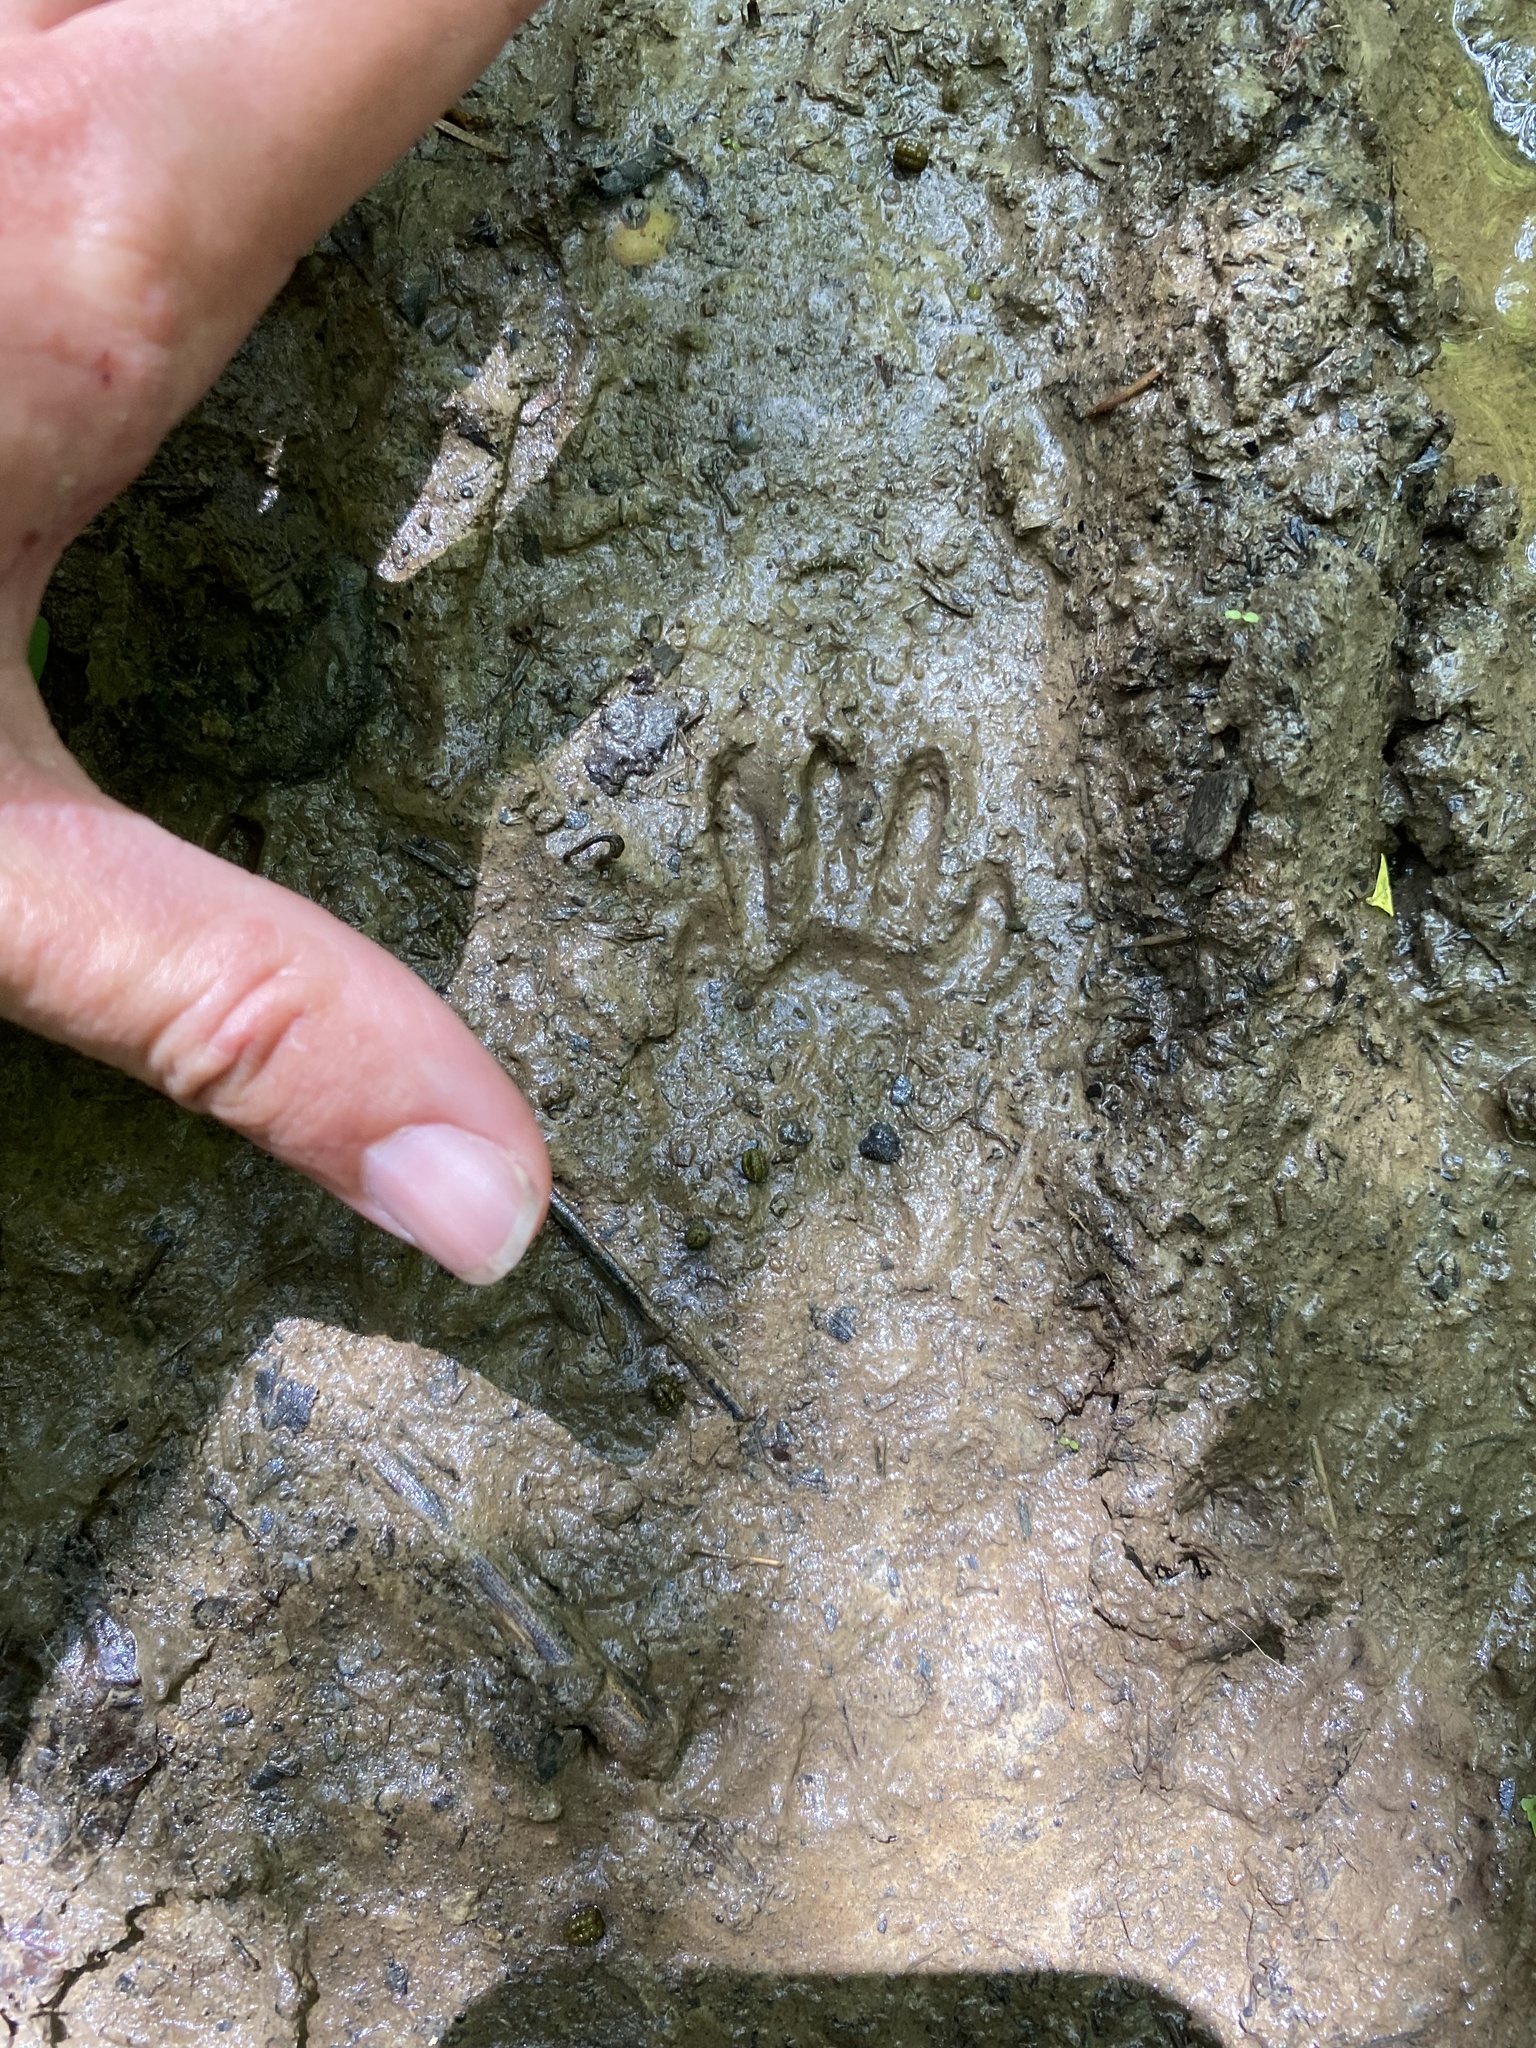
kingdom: Animalia
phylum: Chordata
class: Mammalia
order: Carnivora
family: Procyonidae
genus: Procyon
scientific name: Procyon lotor
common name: Raccoon
